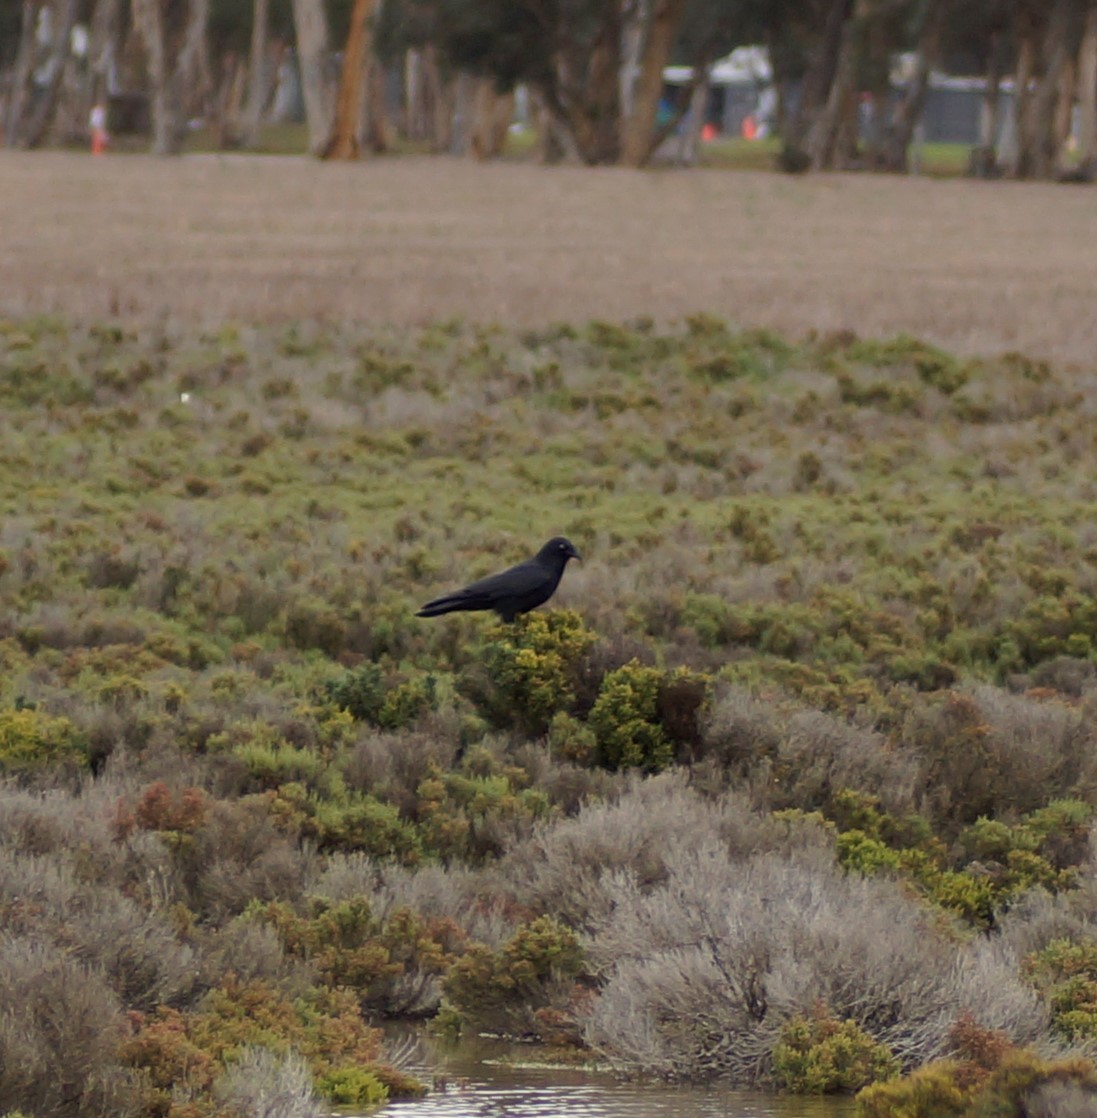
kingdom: Animalia
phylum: Chordata
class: Aves
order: Passeriformes
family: Corvidae
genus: Corvus
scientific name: Corvus mellori
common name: Little raven
